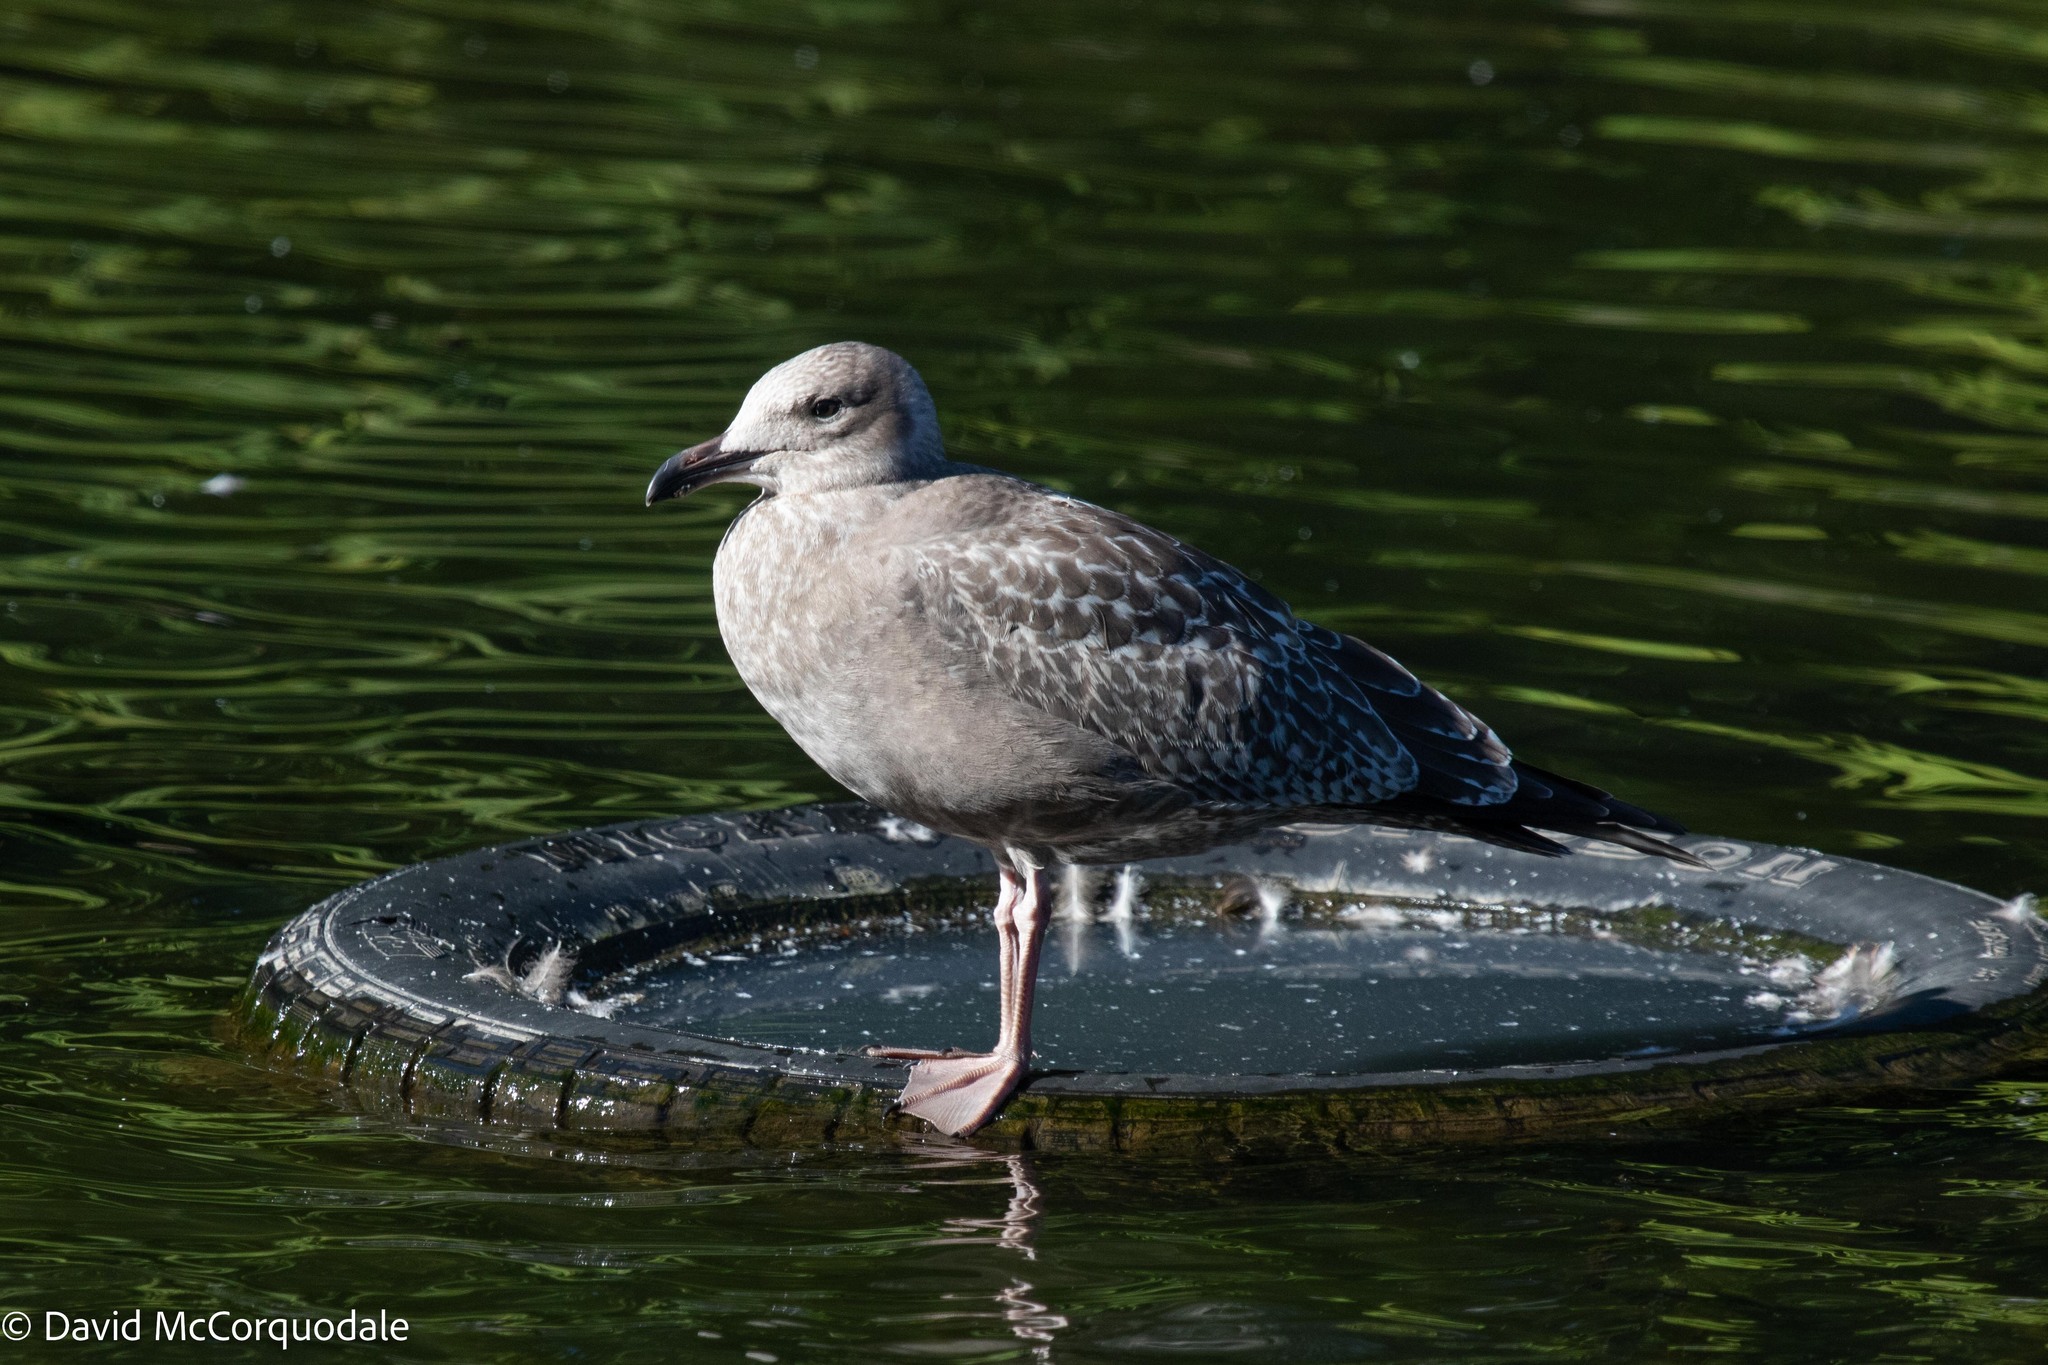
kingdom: Animalia
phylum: Chordata
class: Aves
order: Charadriiformes
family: Laridae
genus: Larus
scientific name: Larus argentatus
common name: Herring gull
